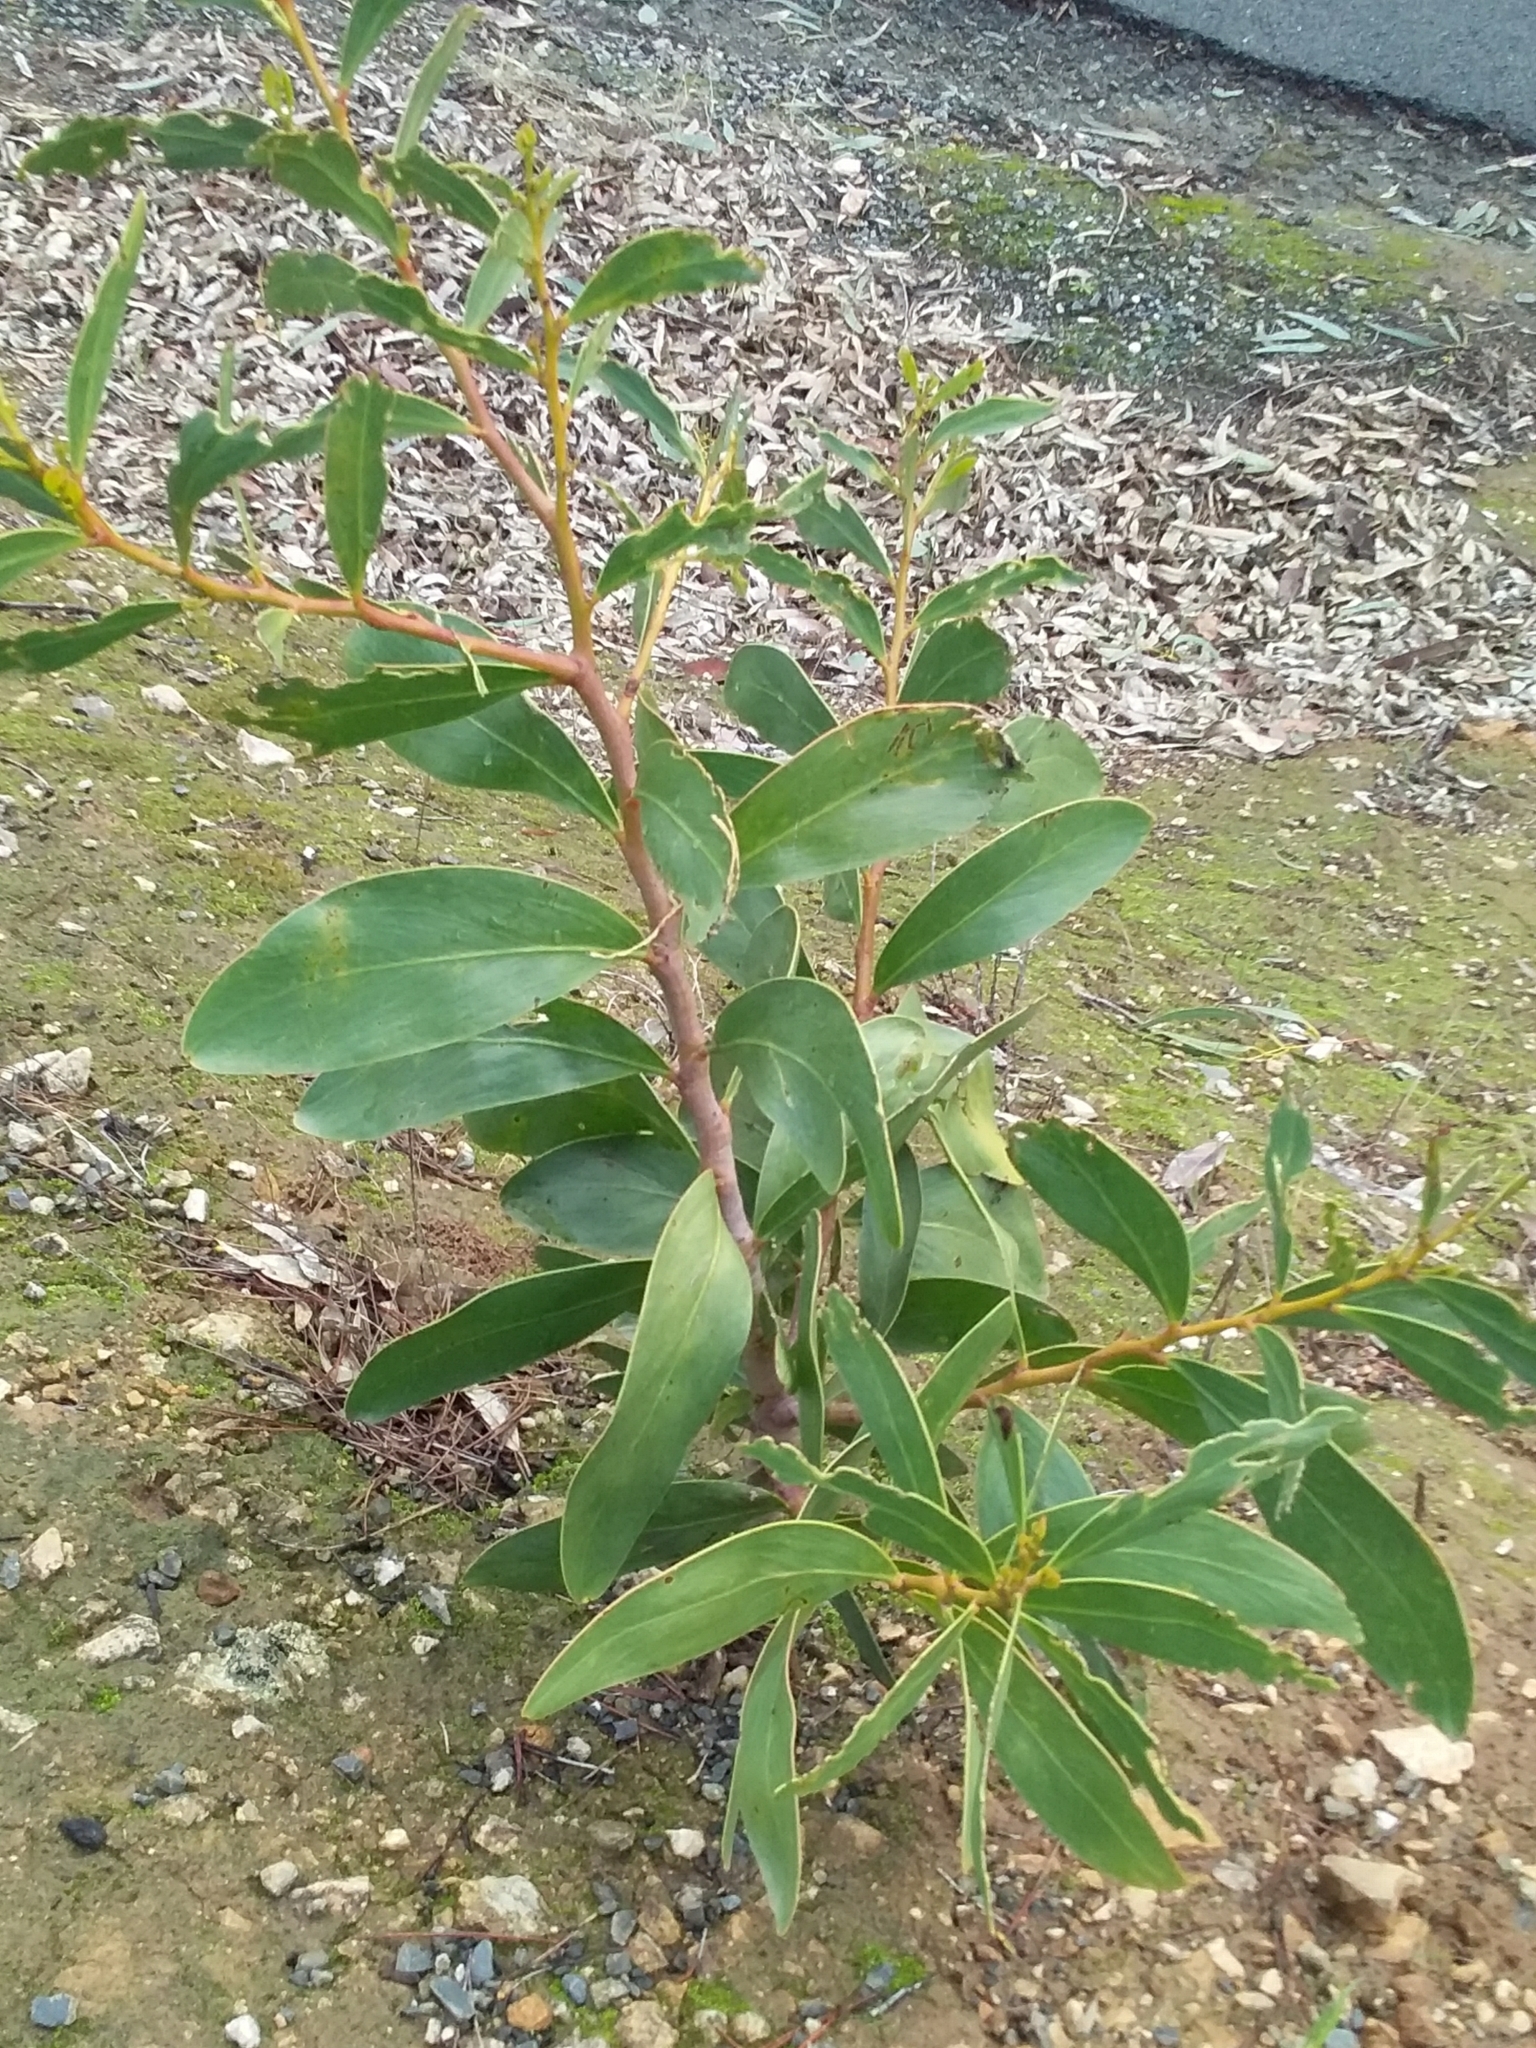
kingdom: Plantae
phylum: Tracheophyta
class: Magnoliopsida
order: Fabales
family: Fabaceae
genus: Acacia
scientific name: Acacia pycnantha
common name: Golden wattle
